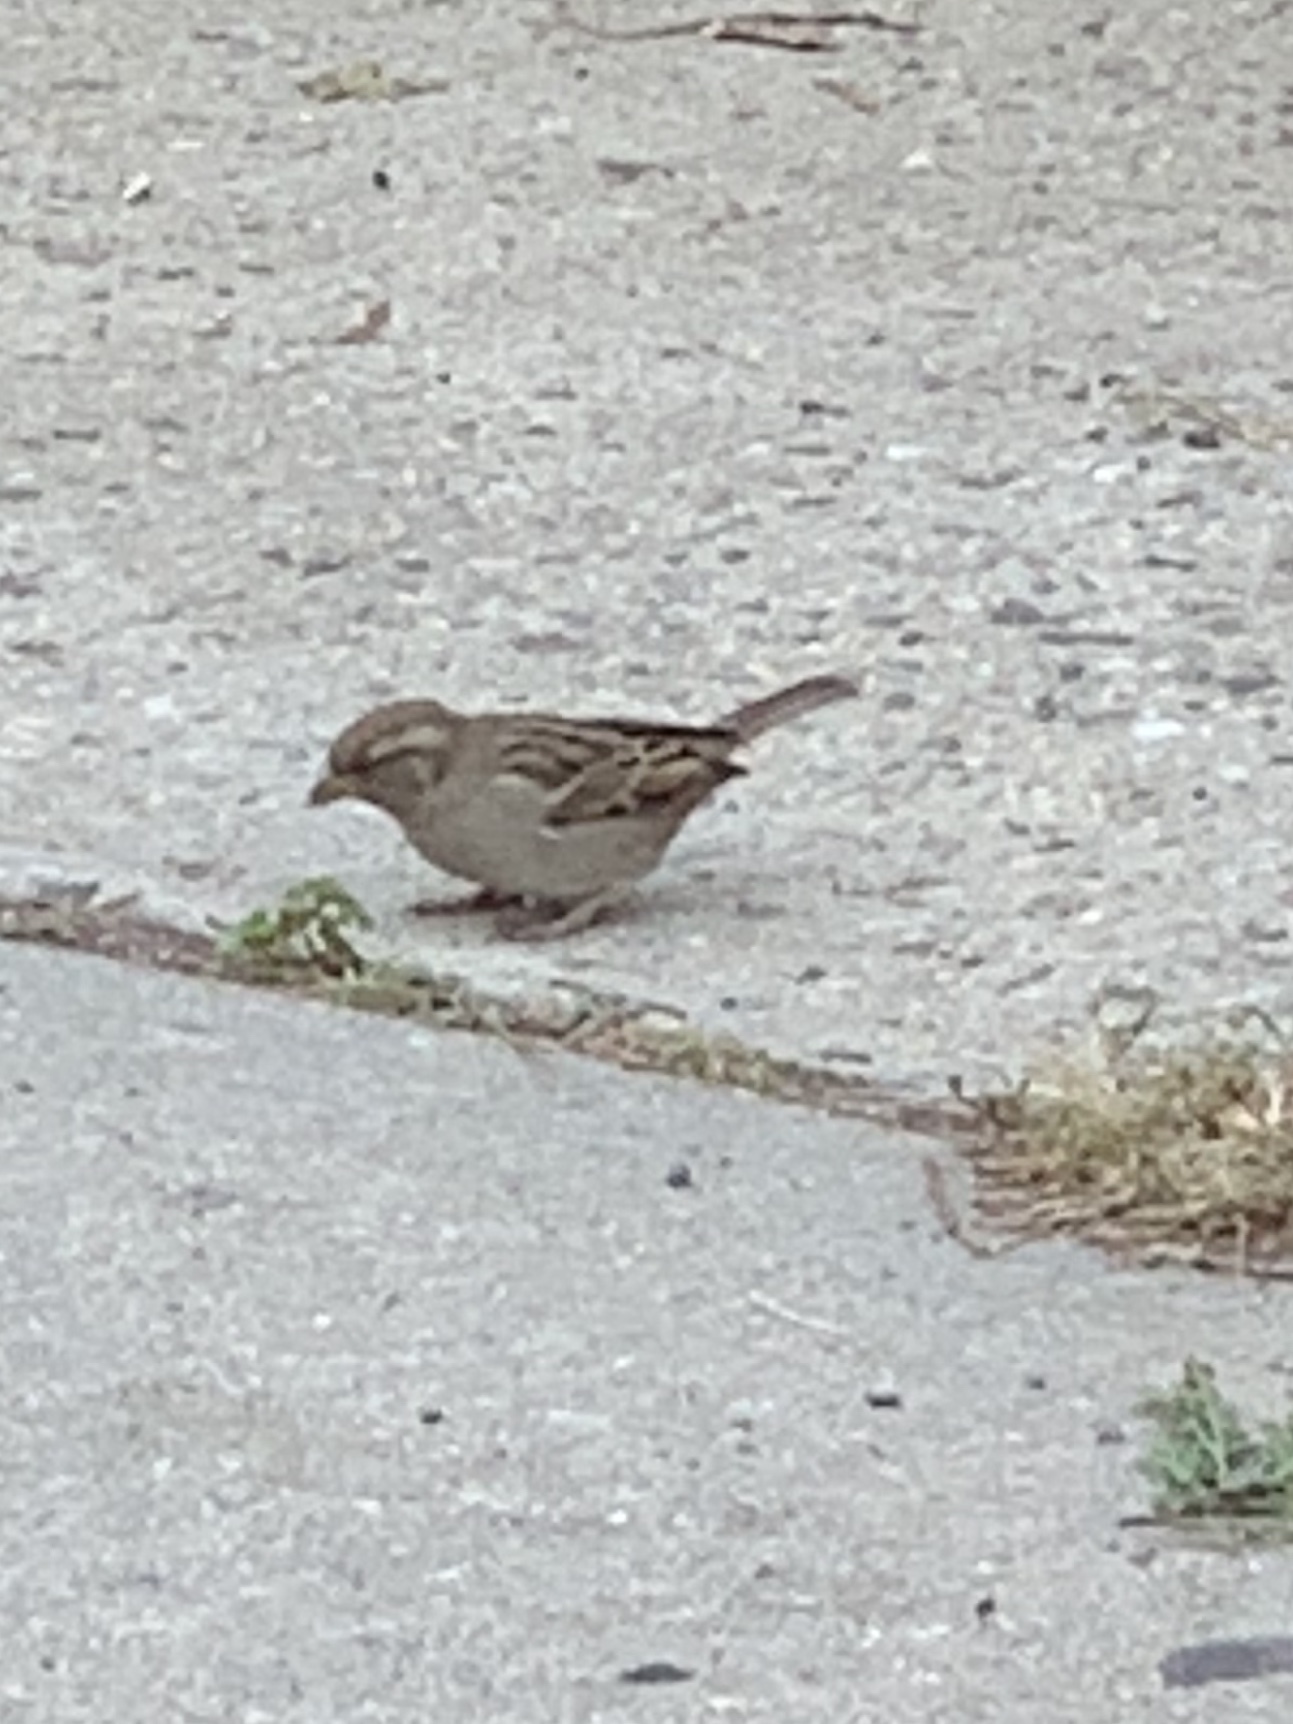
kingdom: Animalia
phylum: Chordata
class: Aves
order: Passeriformes
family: Passeridae
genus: Passer
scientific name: Passer domesticus
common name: House sparrow
